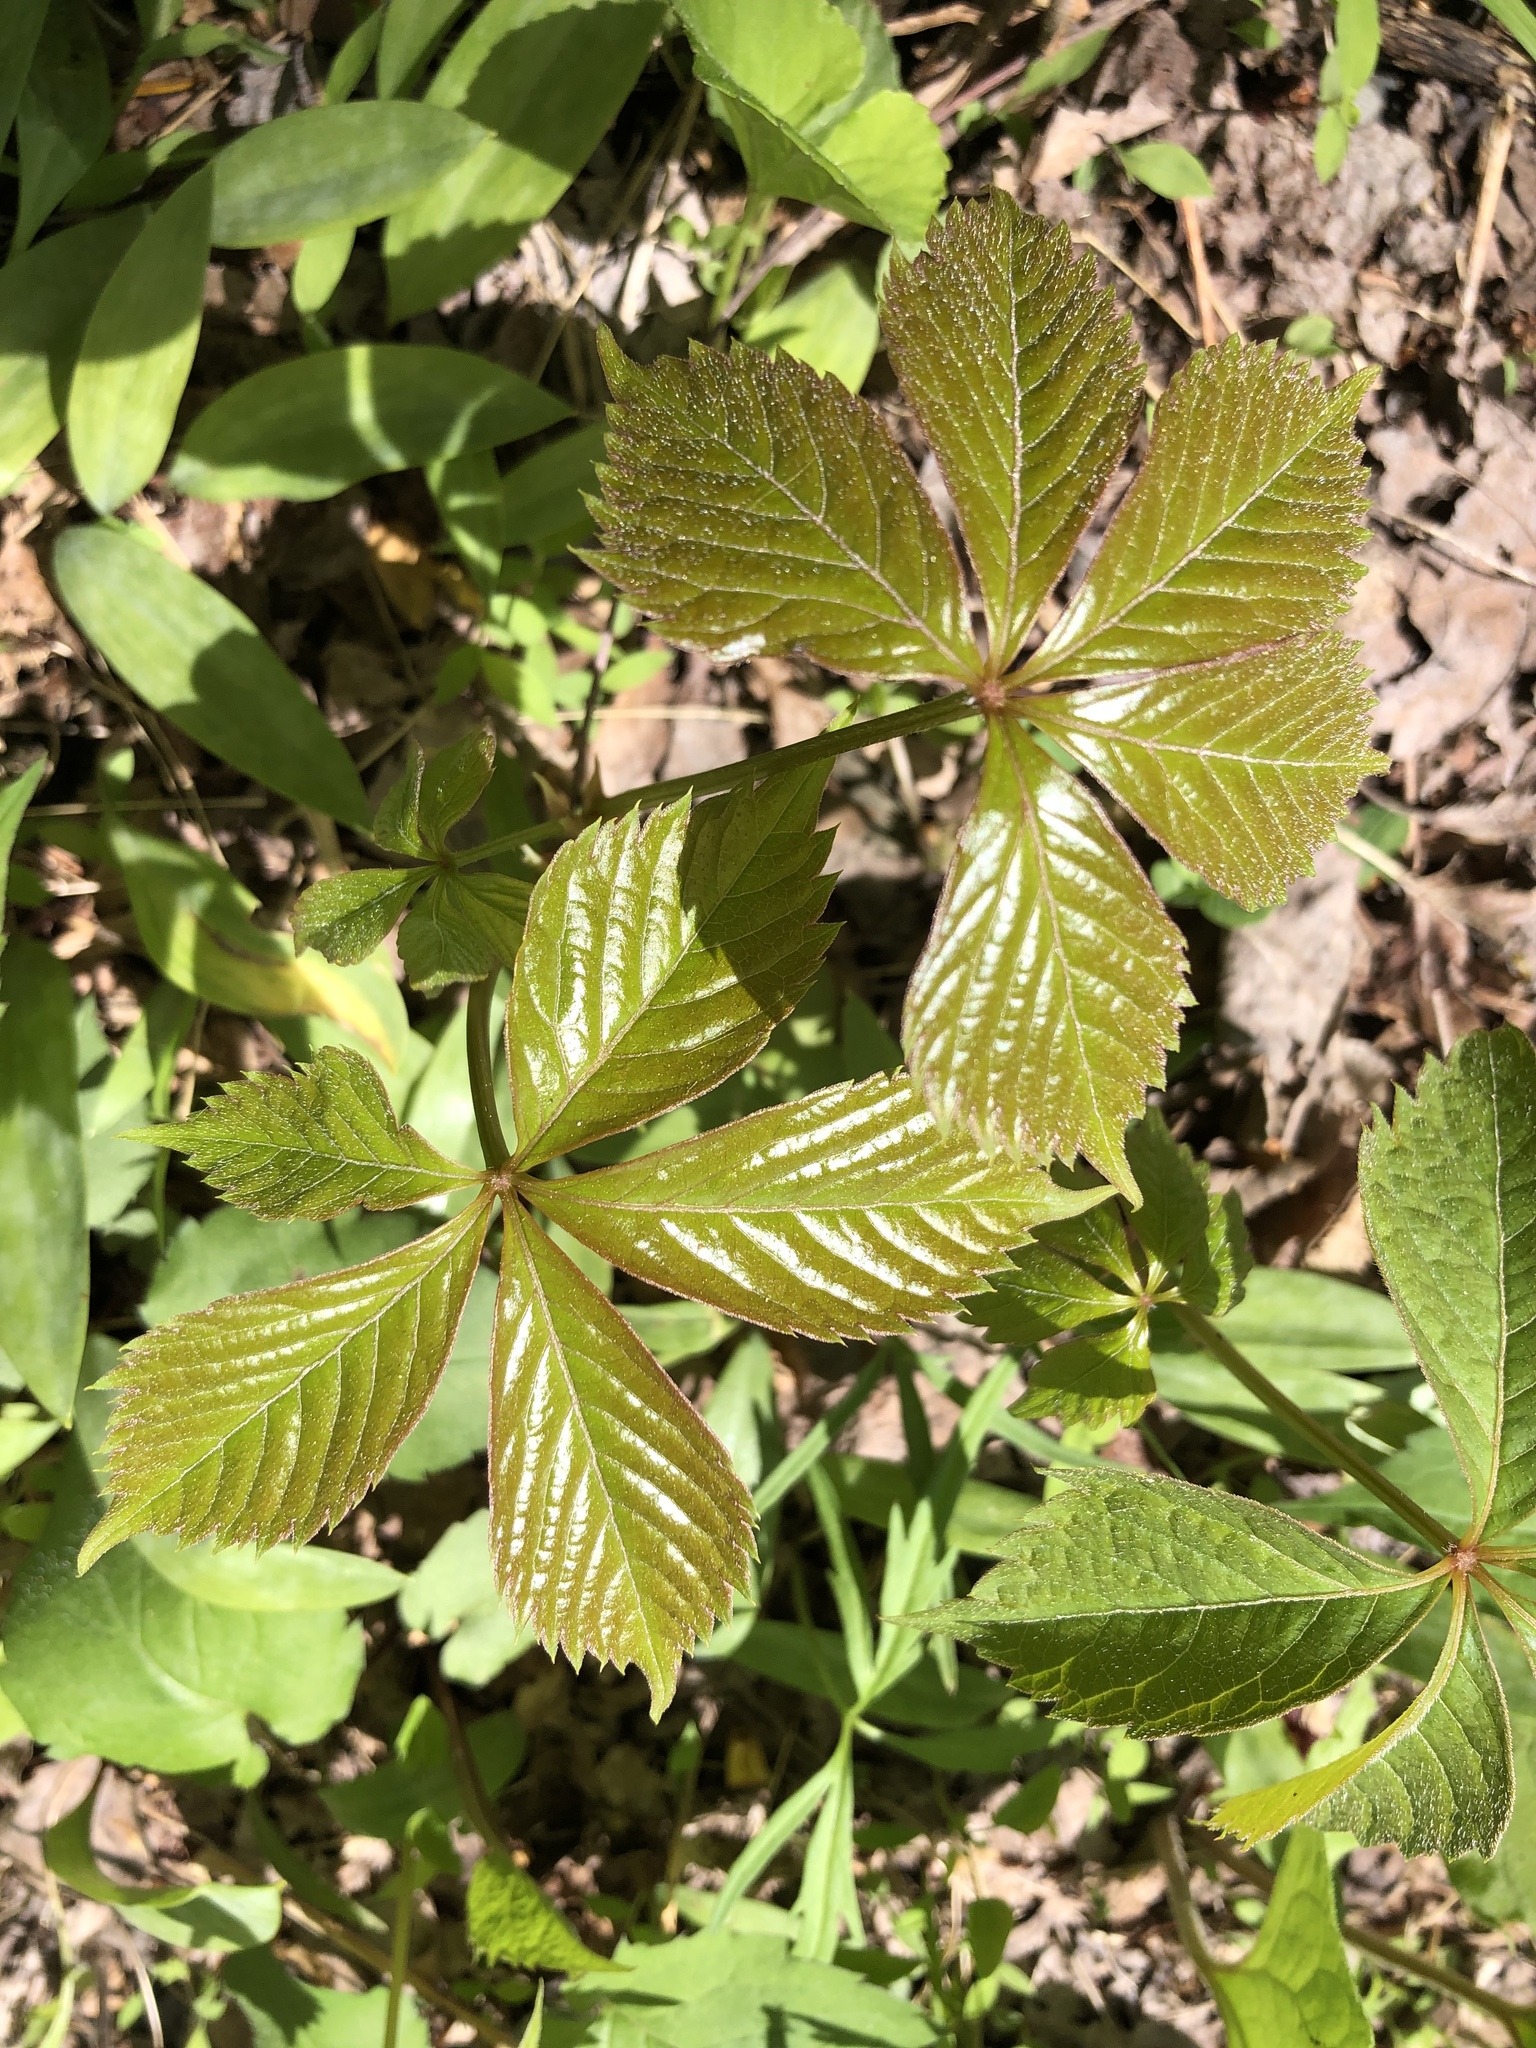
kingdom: Plantae
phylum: Tracheophyta
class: Magnoliopsida
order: Vitales
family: Vitaceae
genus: Parthenocissus
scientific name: Parthenocissus quinquefolia
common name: Virginia-creeper
